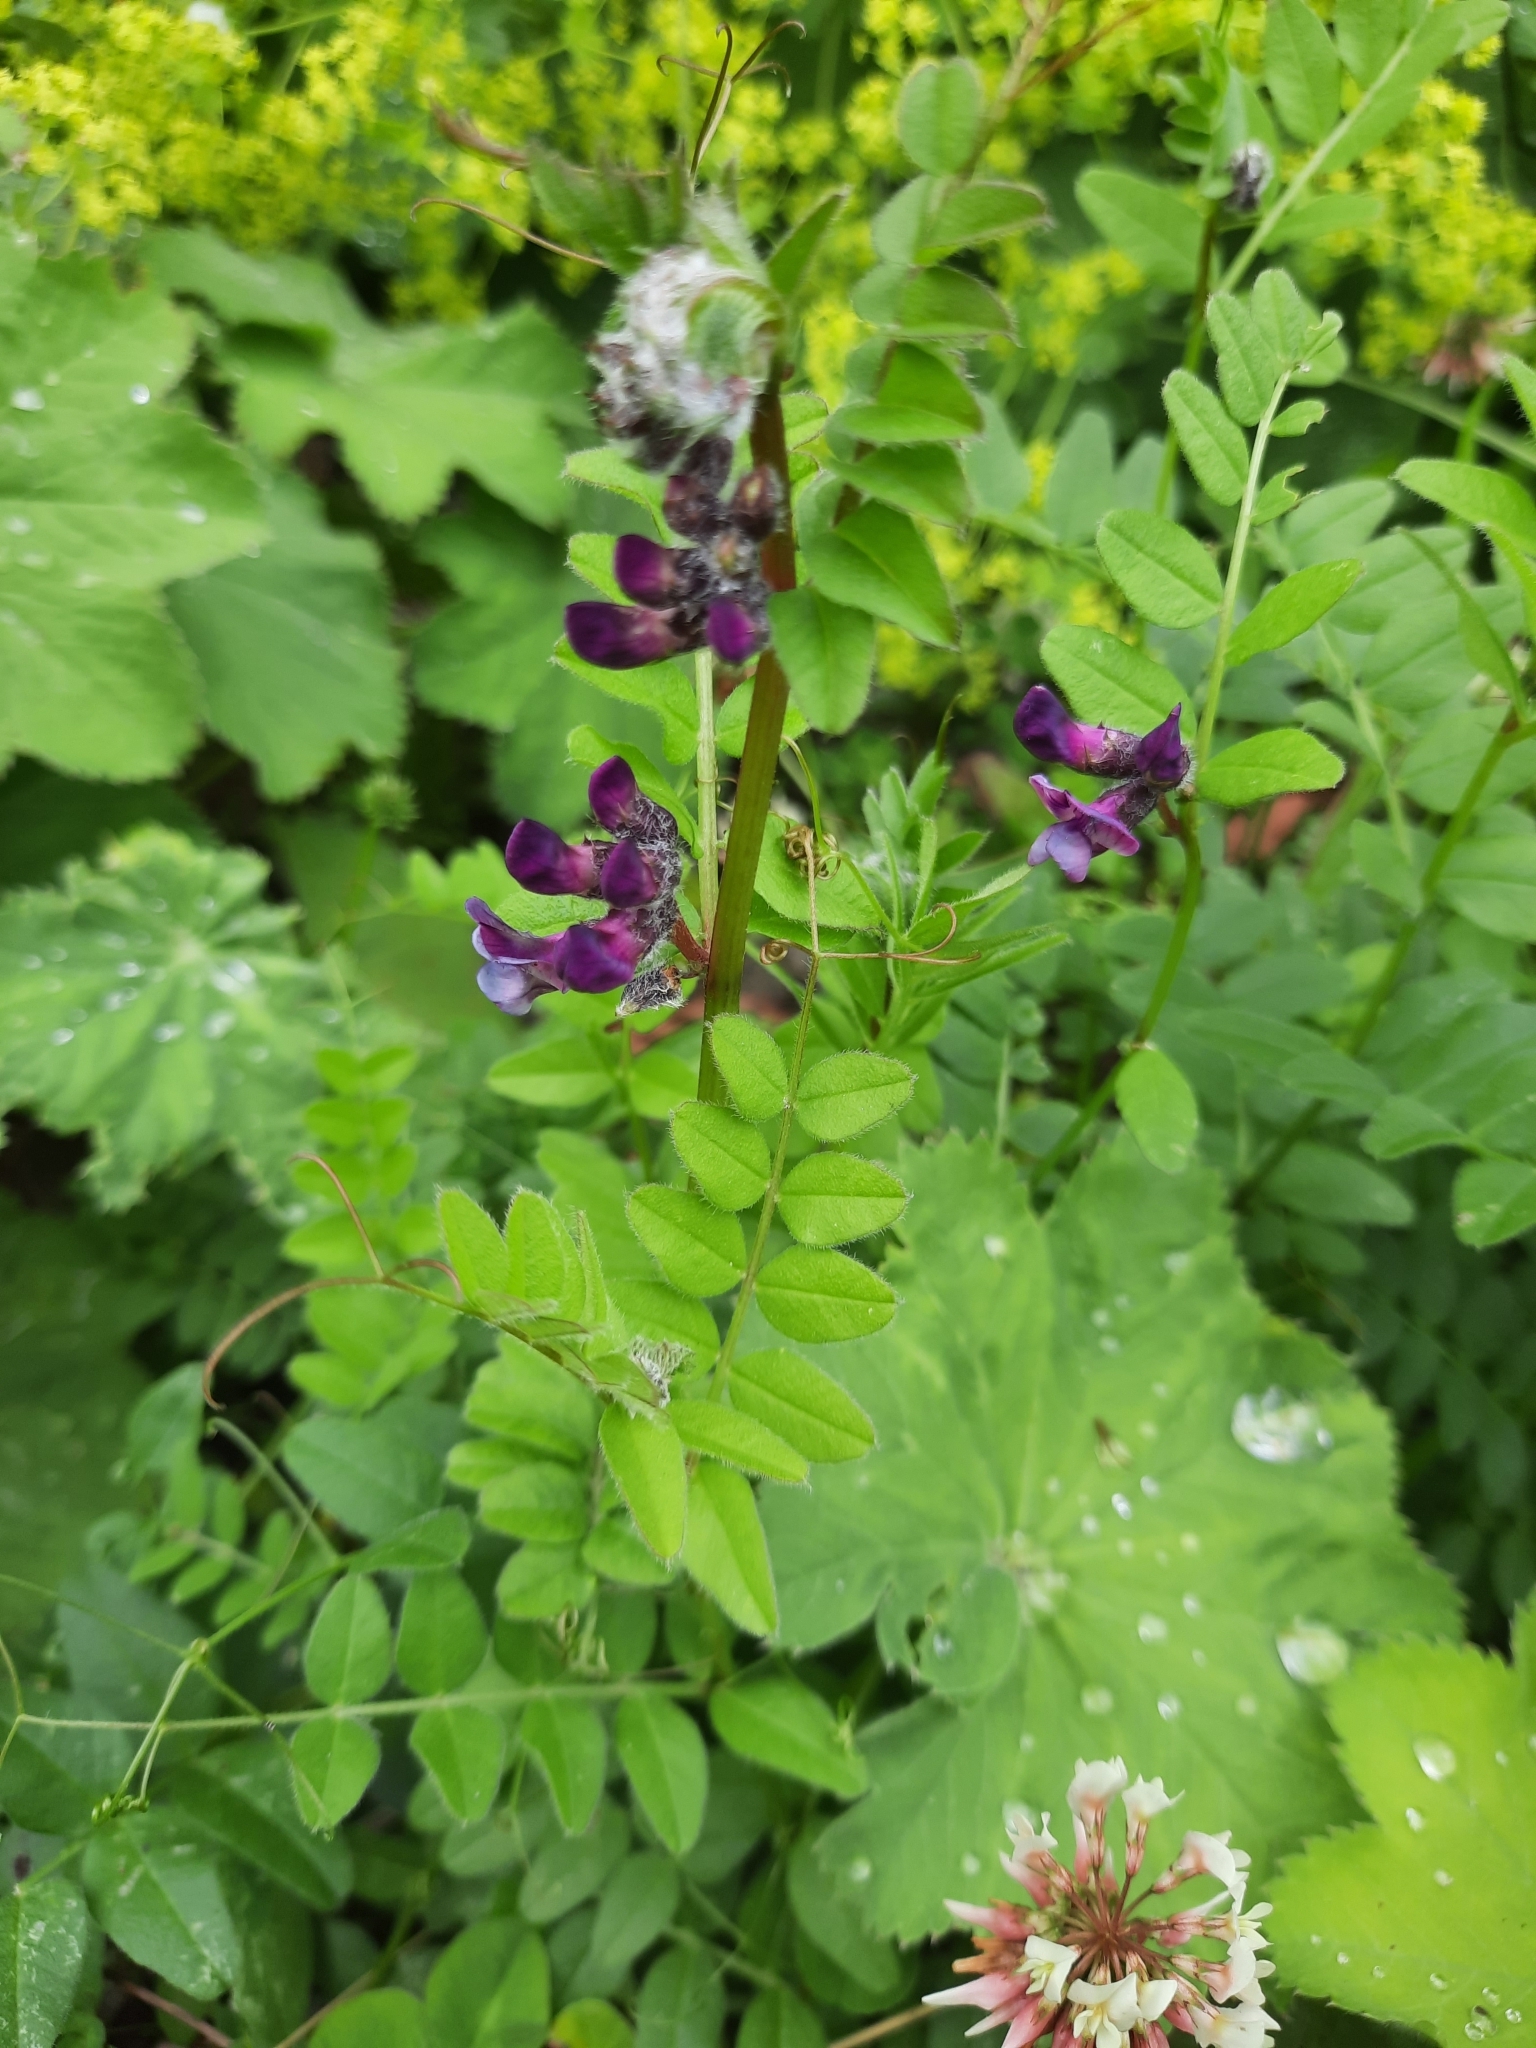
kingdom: Plantae
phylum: Tracheophyta
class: Magnoliopsida
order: Fabales
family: Fabaceae
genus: Vicia
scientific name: Vicia sepium
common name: Bush vetch
